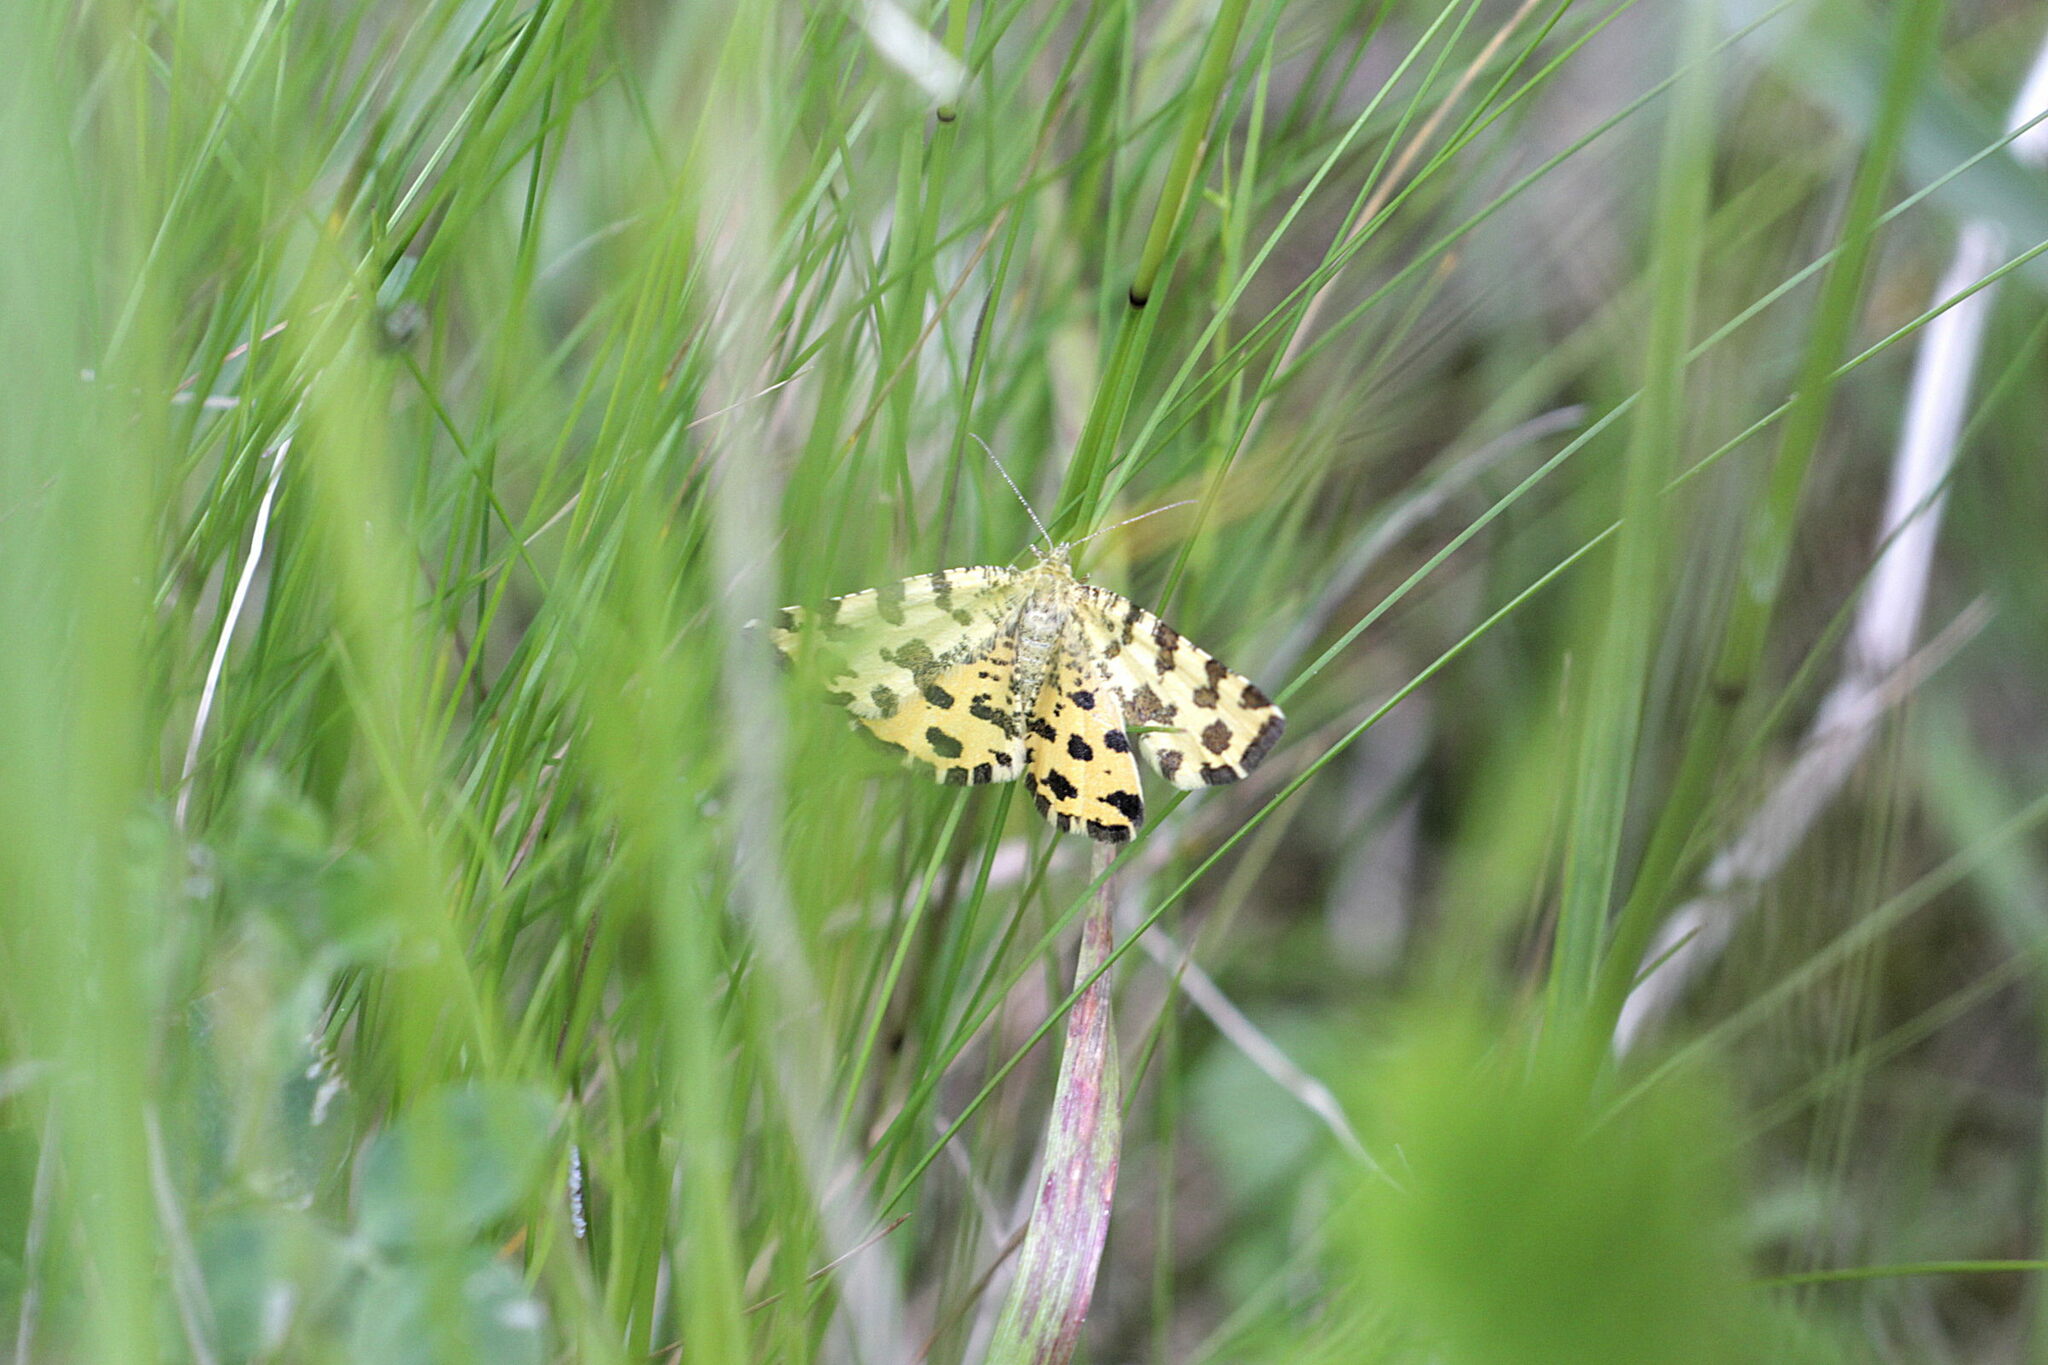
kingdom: Animalia
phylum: Arthropoda
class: Insecta
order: Lepidoptera
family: Geometridae
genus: Pseudopanthera
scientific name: Pseudopanthera macularia
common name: Speckled yellow
